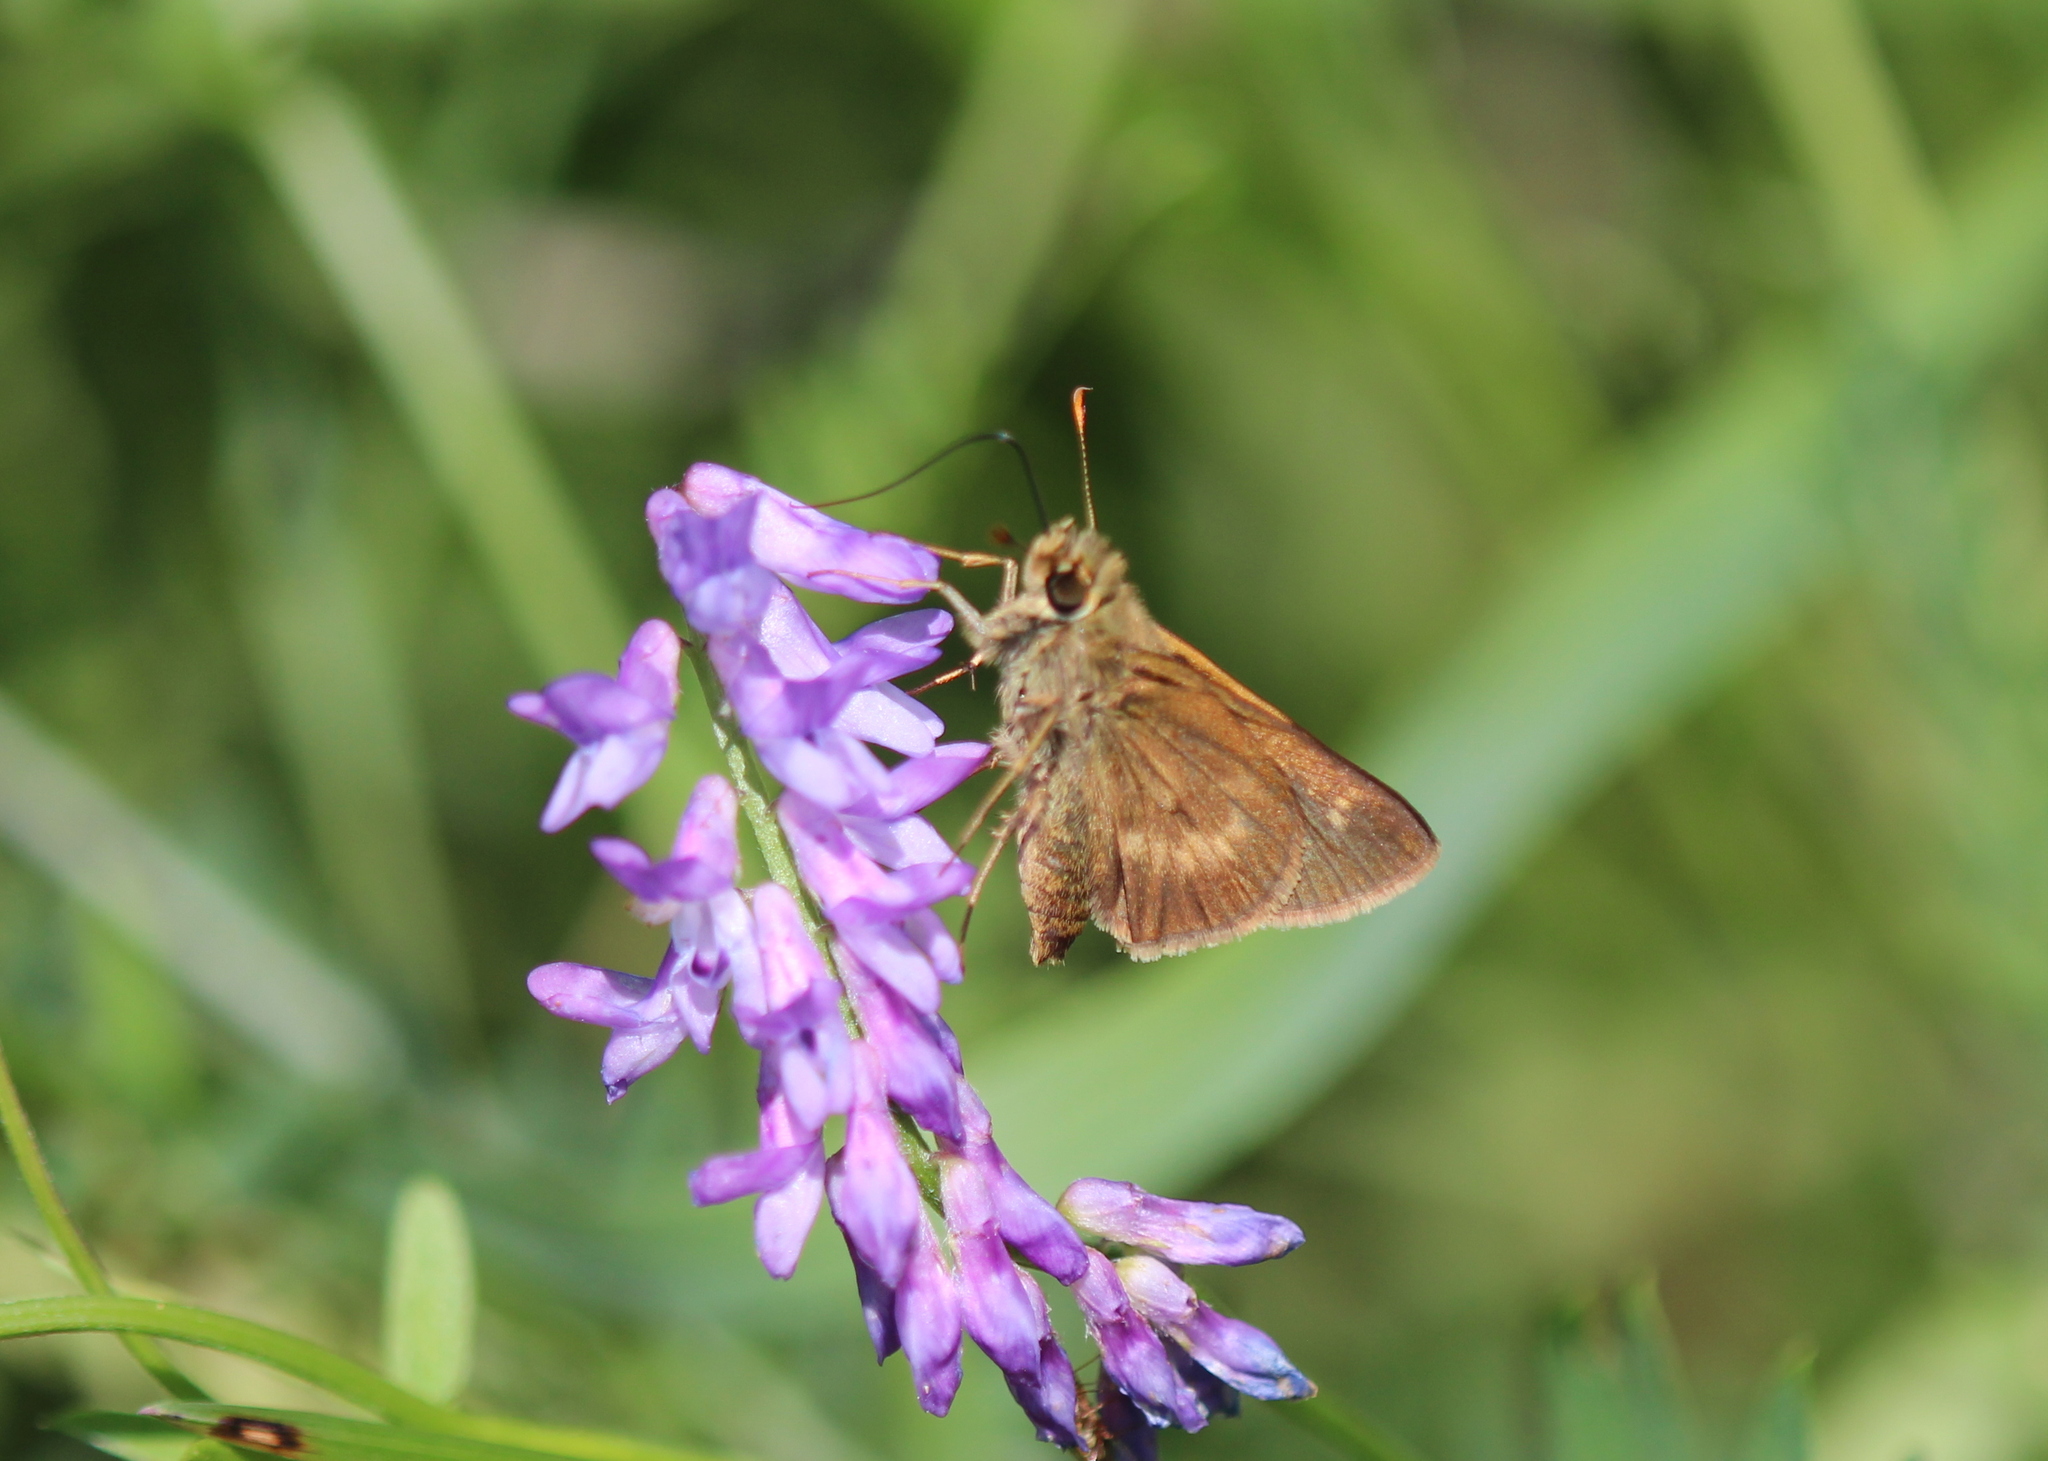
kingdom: Animalia
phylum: Arthropoda
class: Insecta
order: Lepidoptera
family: Hesperiidae
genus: Polites
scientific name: Polites egeremet
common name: Northern broken-dash
